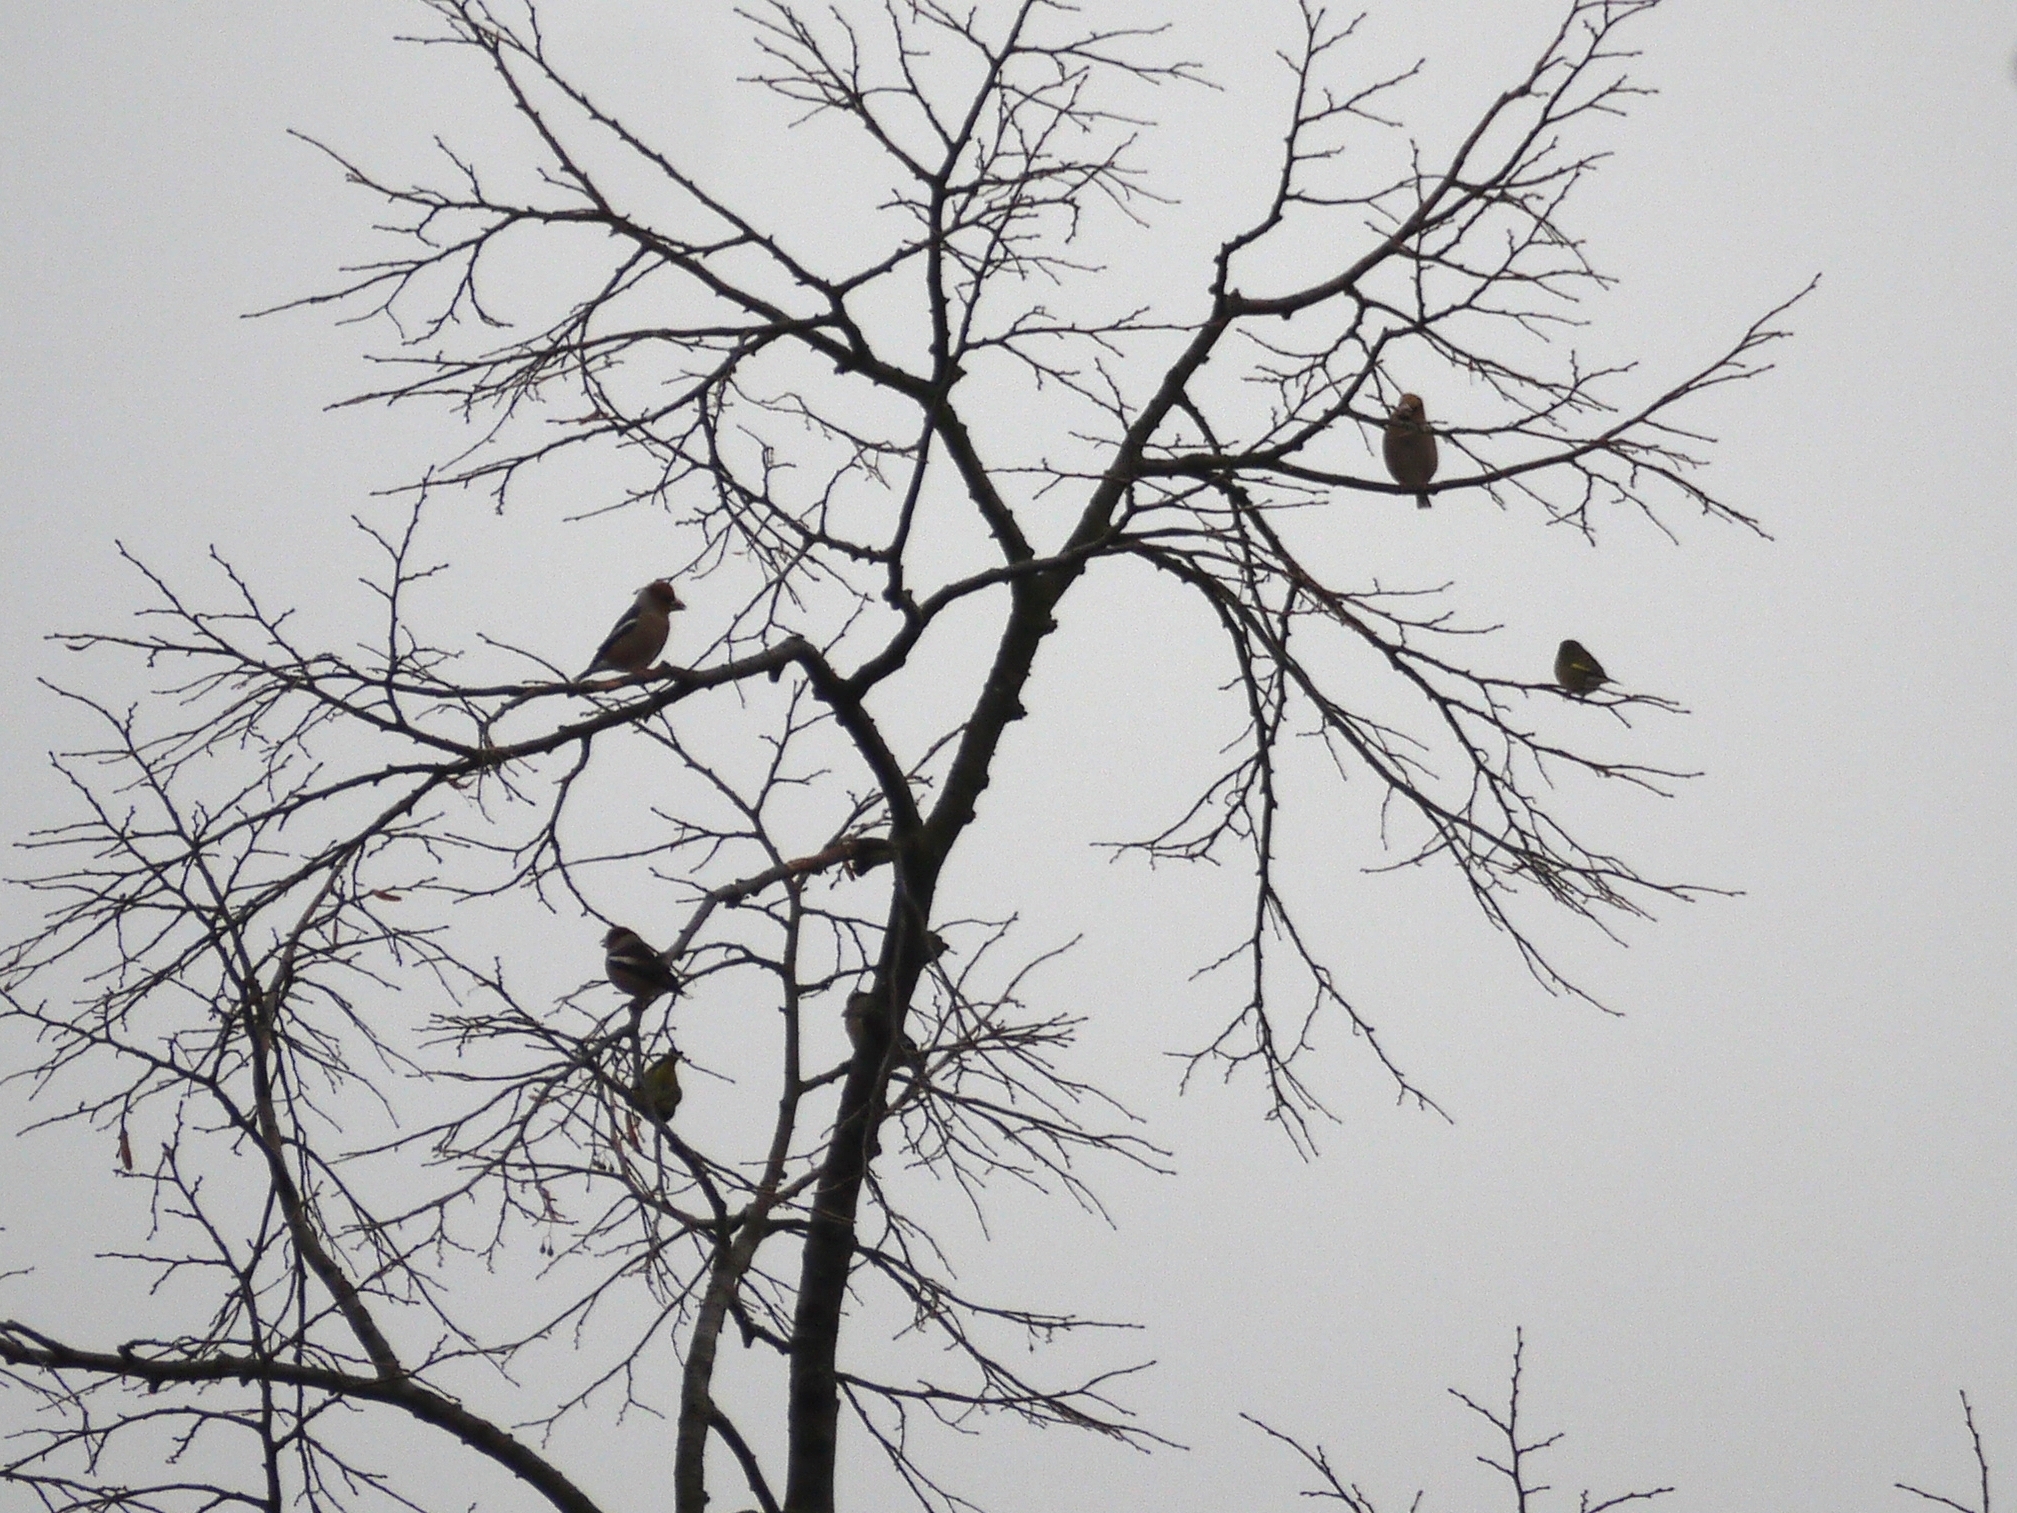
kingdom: Animalia
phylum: Chordata
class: Aves
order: Passeriformes
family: Fringillidae
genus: Coccothraustes
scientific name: Coccothraustes coccothraustes
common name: Hawfinch
